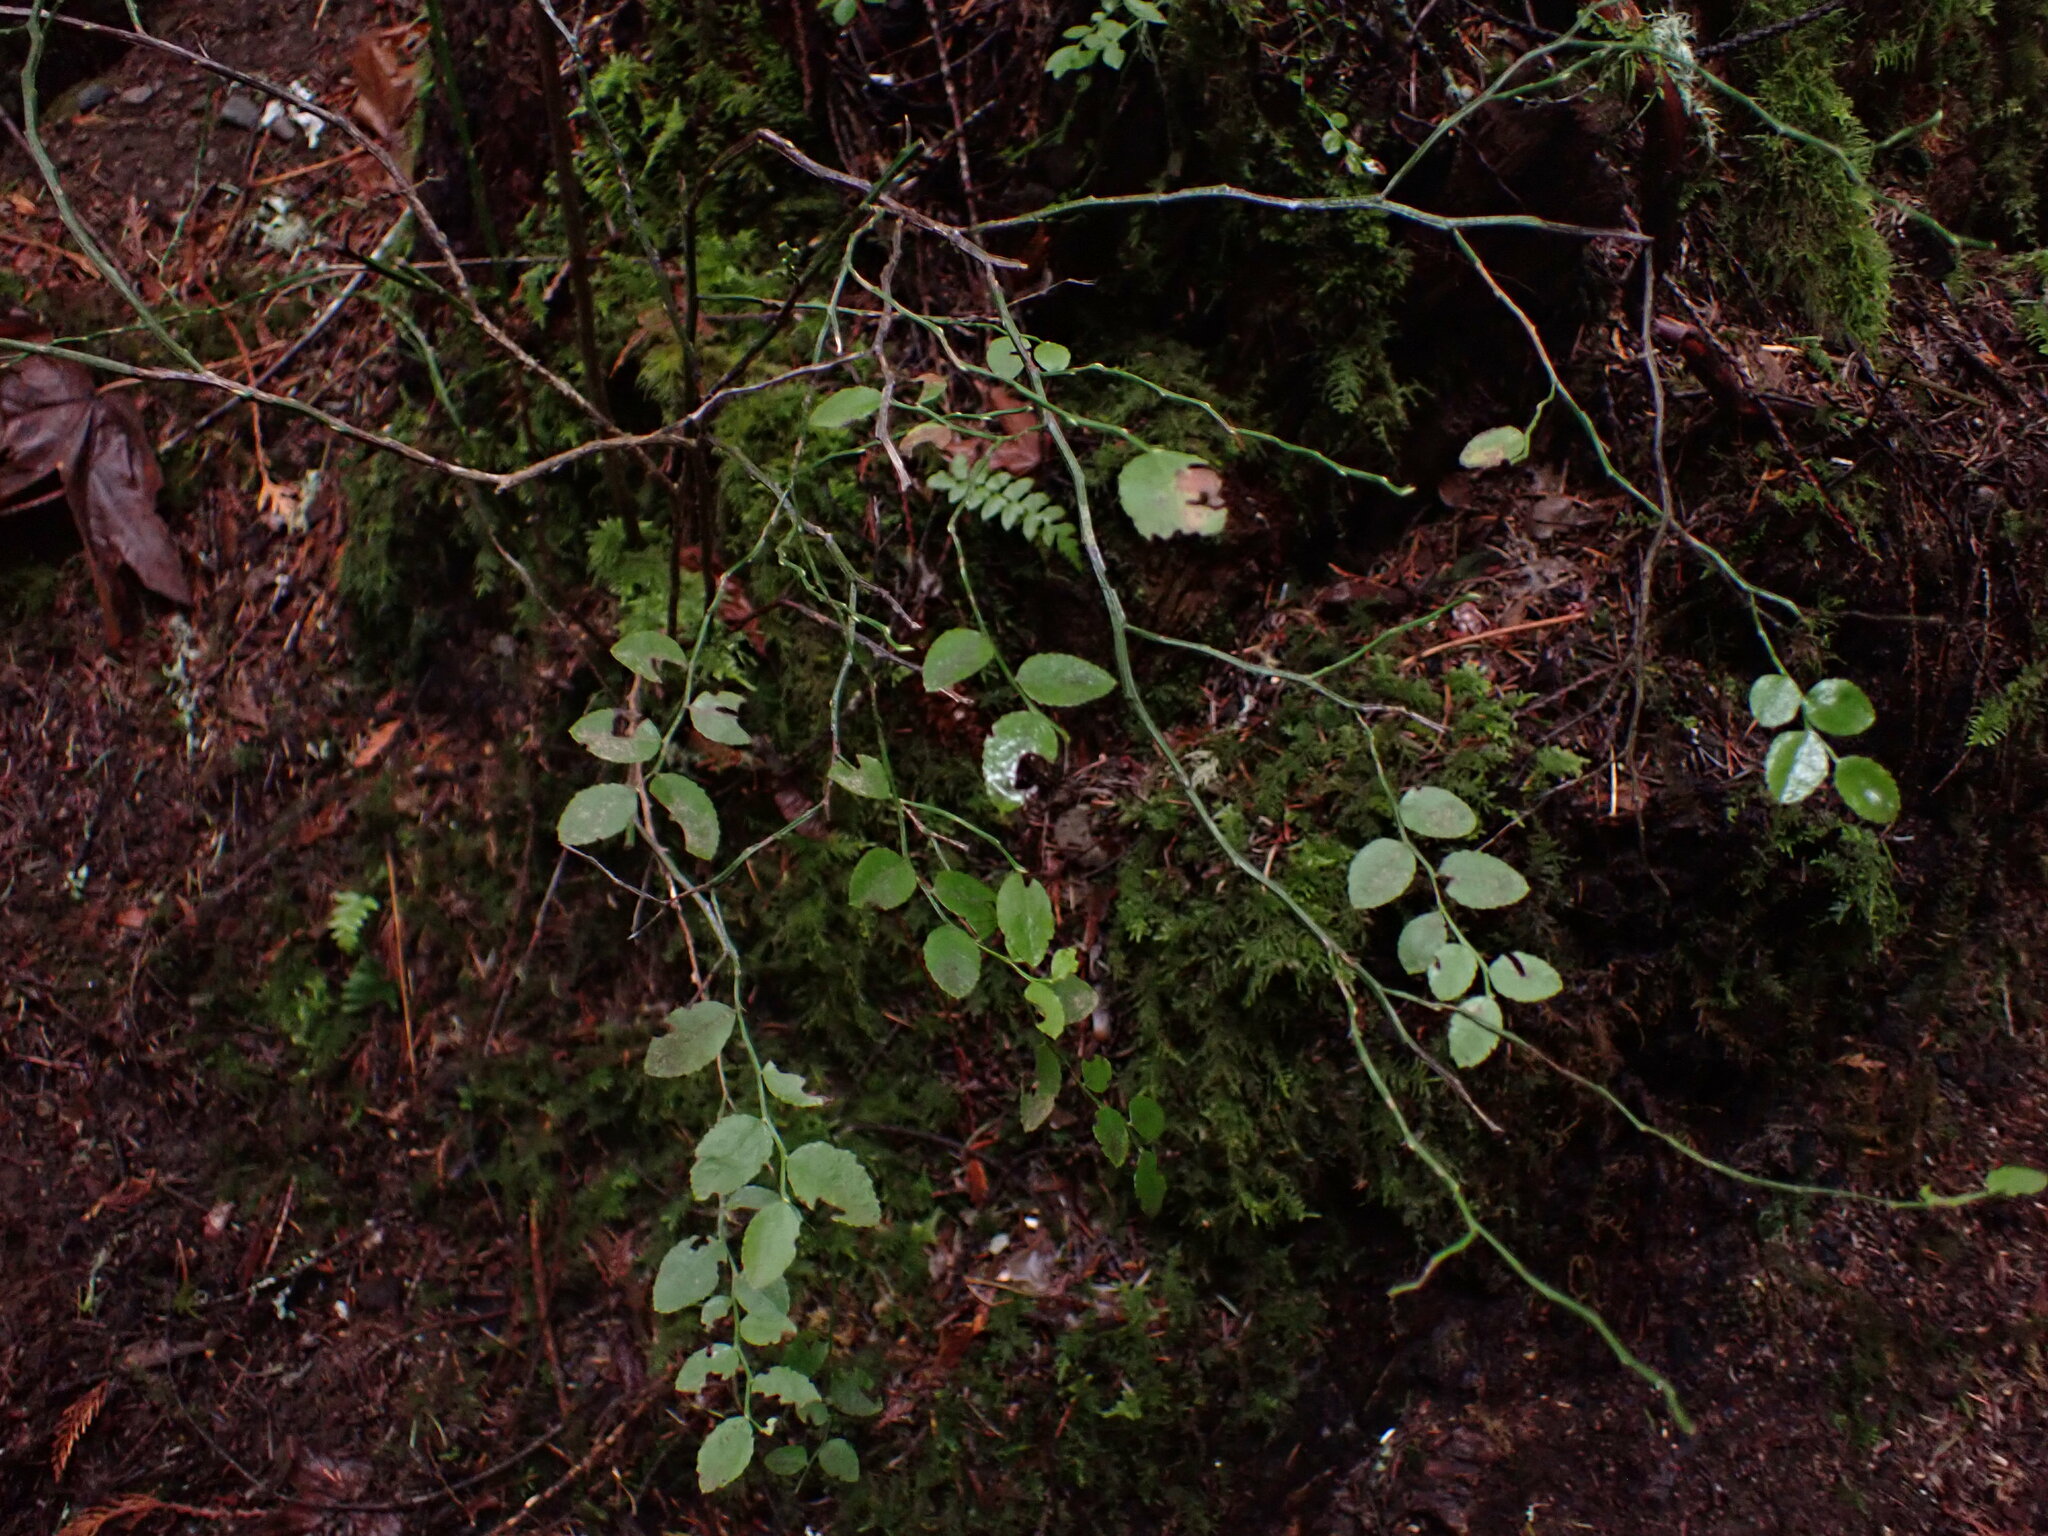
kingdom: Plantae
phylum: Tracheophyta
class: Magnoliopsida
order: Ericales
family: Ericaceae
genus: Vaccinium
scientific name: Vaccinium parvifolium
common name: Red-huckleberry
